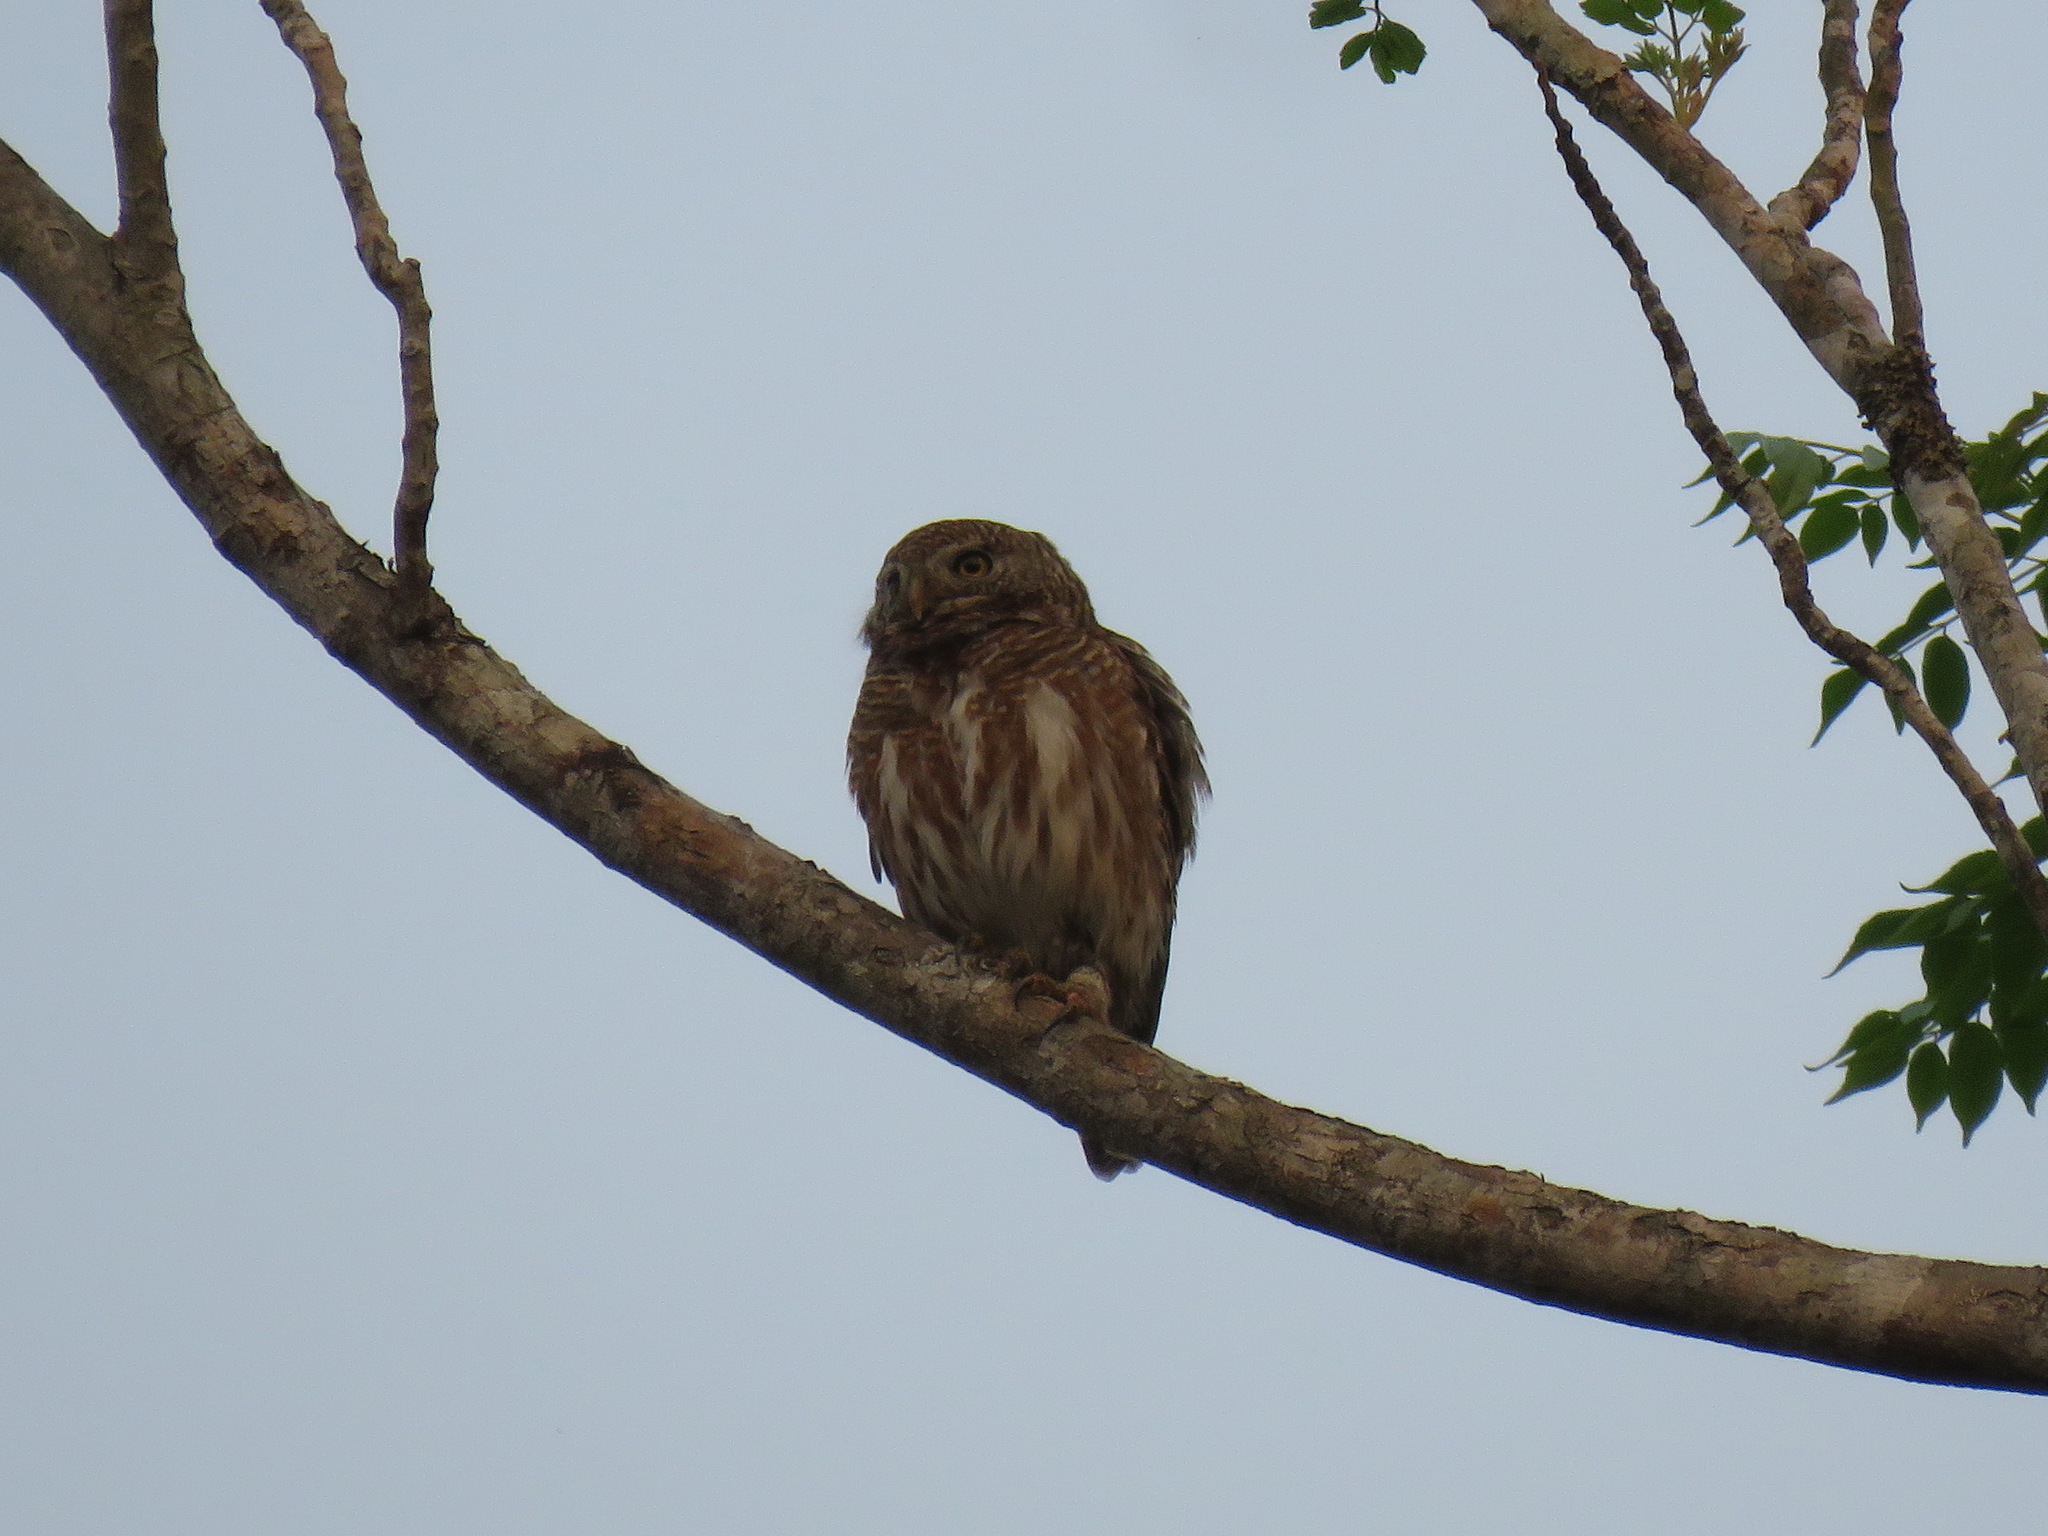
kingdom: Animalia
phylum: Chordata
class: Aves
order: Strigiformes
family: Strigidae
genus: Glaucidium
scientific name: Glaucidium cuculoides
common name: Asian barred owlet
